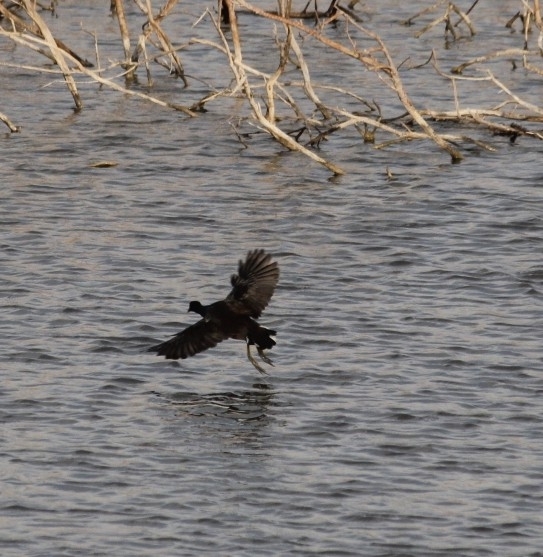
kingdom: Animalia
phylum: Chordata
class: Aves
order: Gruiformes
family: Rallidae
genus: Gallinula
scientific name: Gallinula chloropus
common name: Common moorhen
